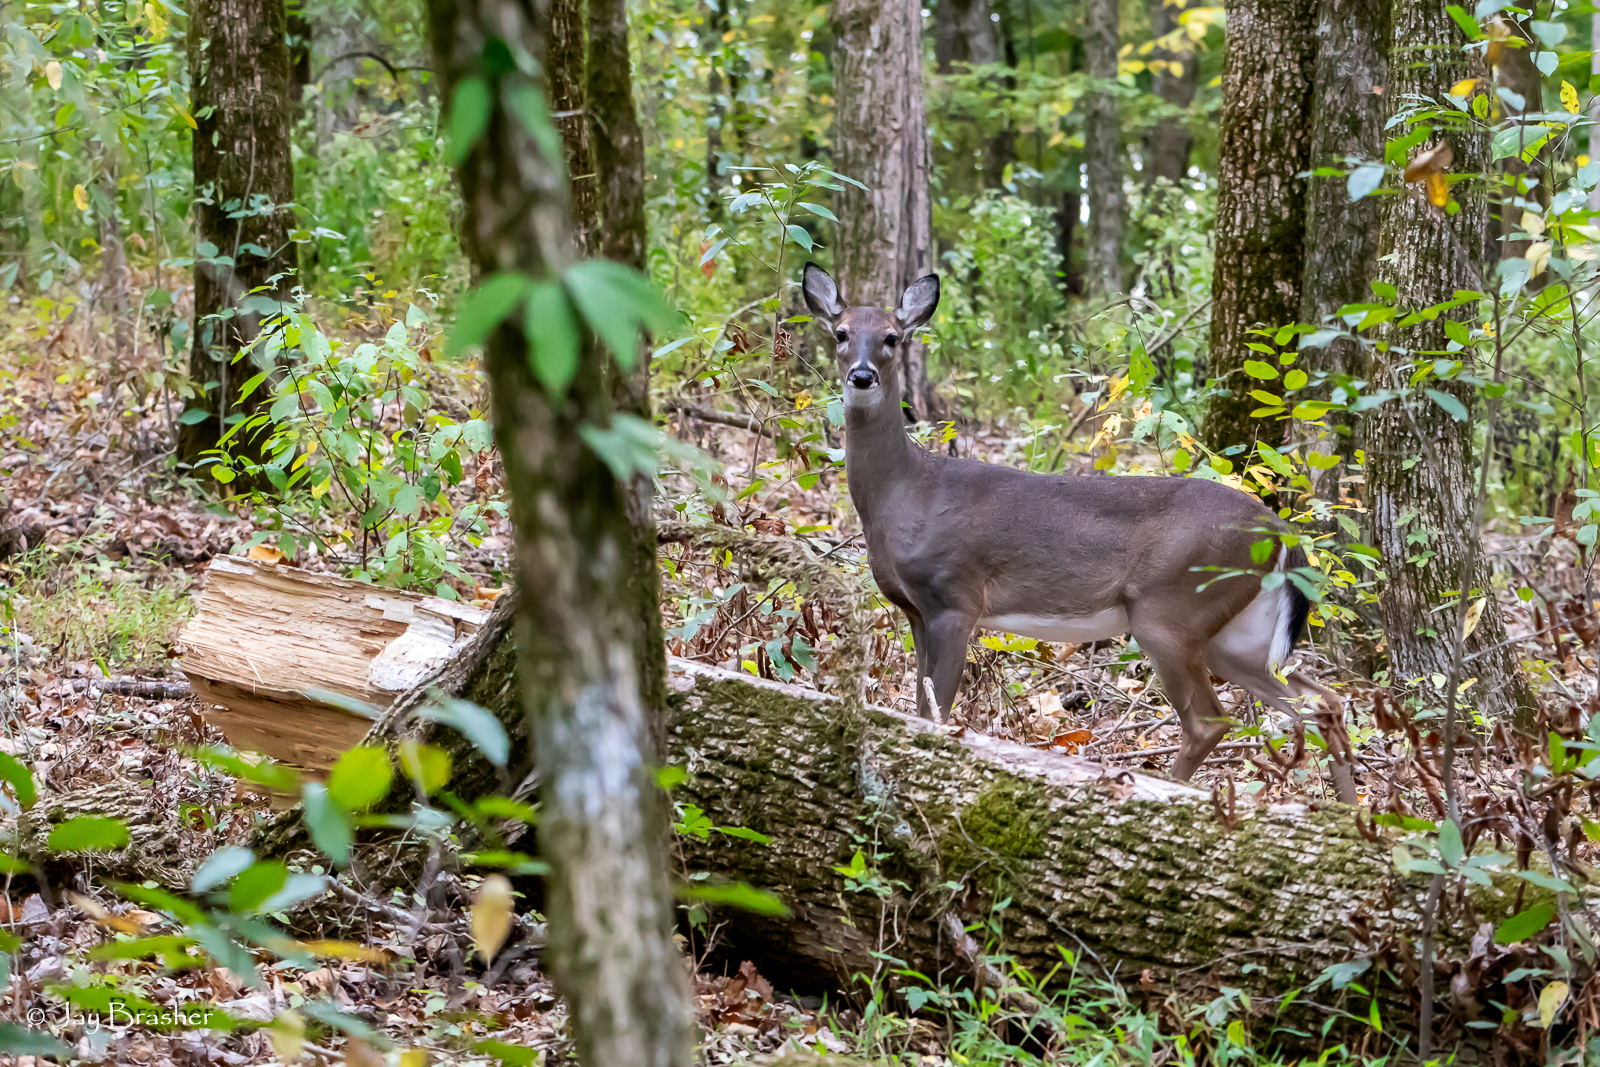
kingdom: Animalia
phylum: Chordata
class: Mammalia
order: Artiodactyla
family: Cervidae
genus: Odocoileus
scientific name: Odocoileus virginianus
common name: White-tailed deer
